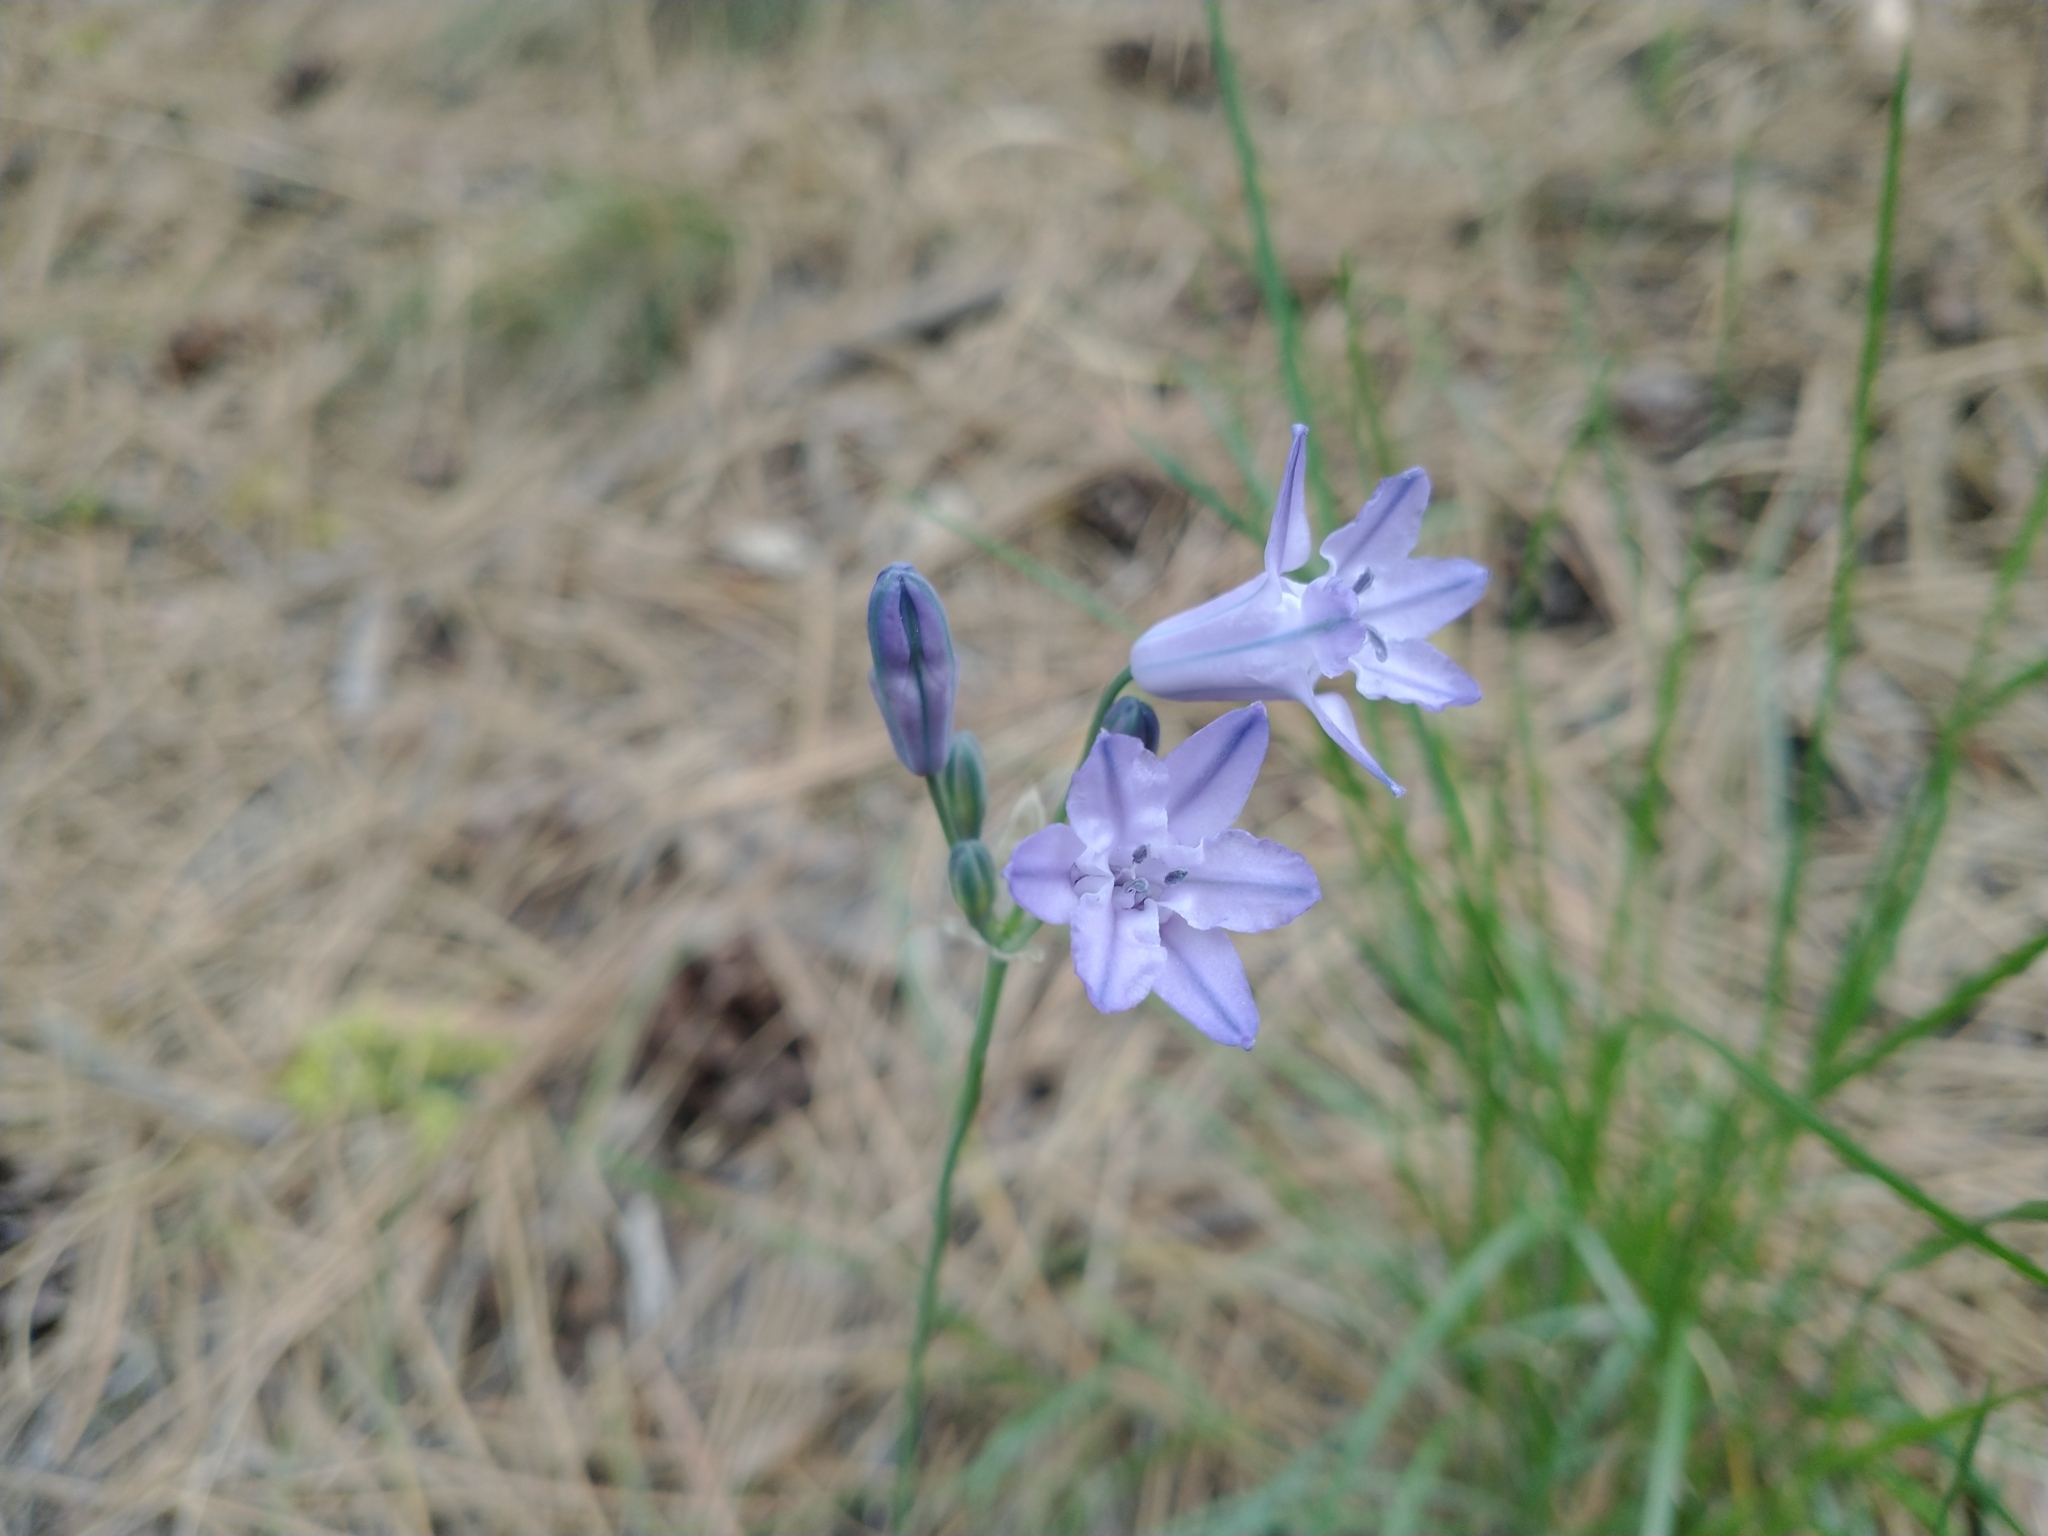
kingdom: Plantae
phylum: Tracheophyta
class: Liliopsida
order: Asparagales
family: Asparagaceae
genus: Triteleia
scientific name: Triteleia grandiflora
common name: Wild hyacinth
